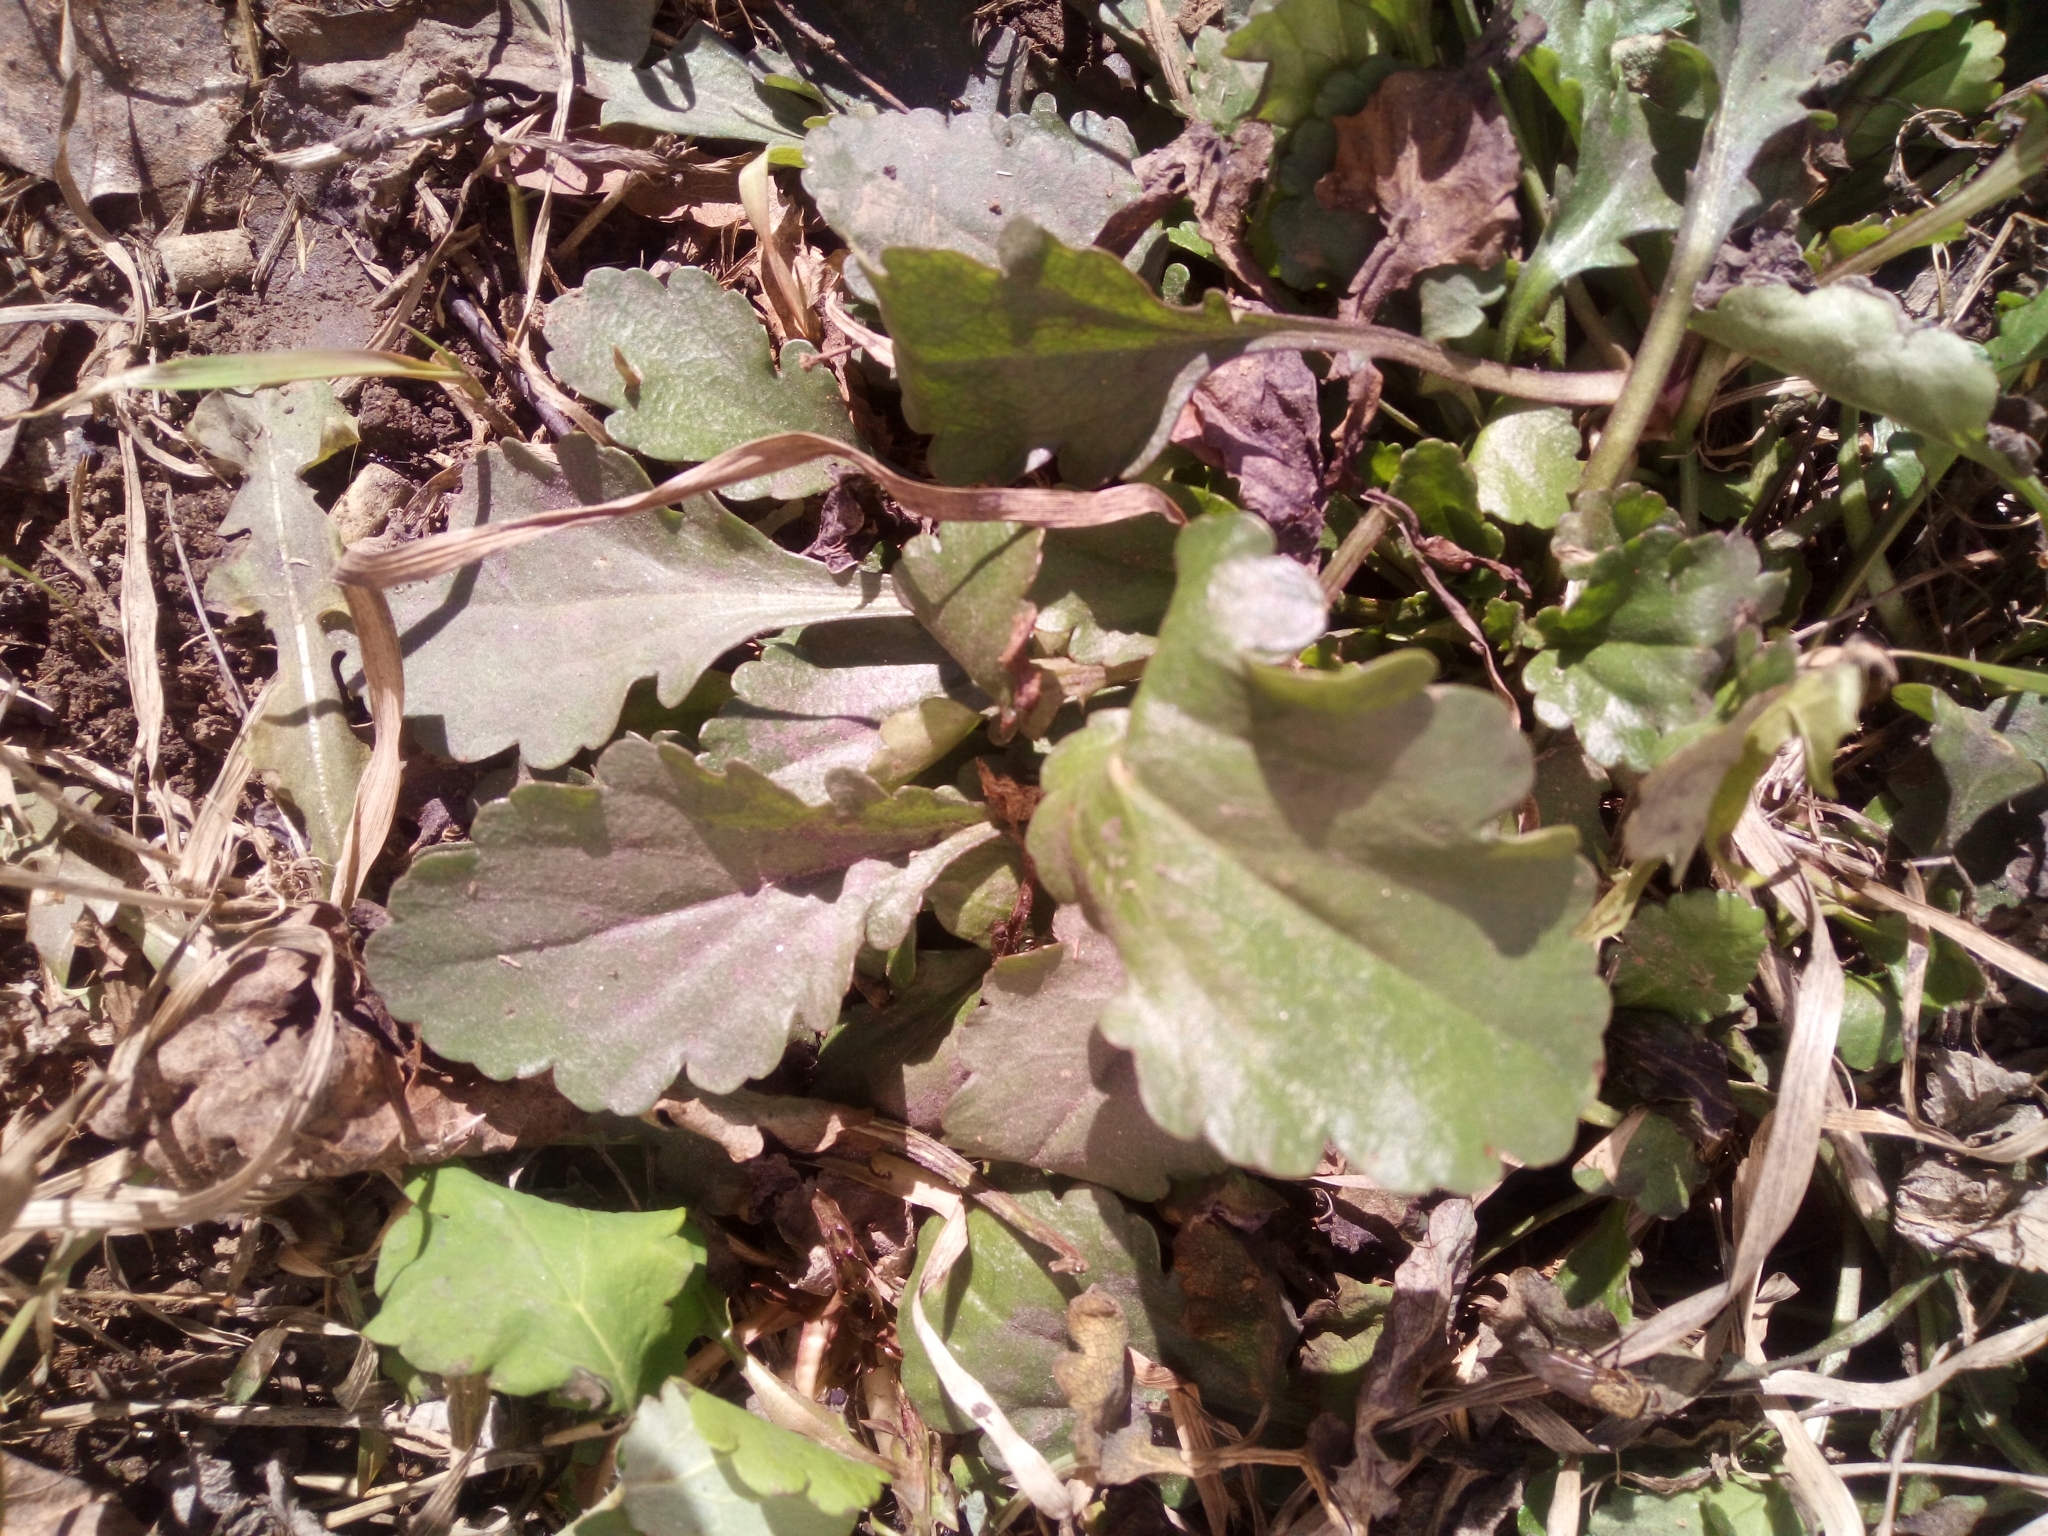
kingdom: Plantae
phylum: Tracheophyta
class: Magnoliopsida
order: Asterales
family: Asteraceae
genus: Leucanthemum
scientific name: Leucanthemum vulgare
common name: Oxeye daisy
